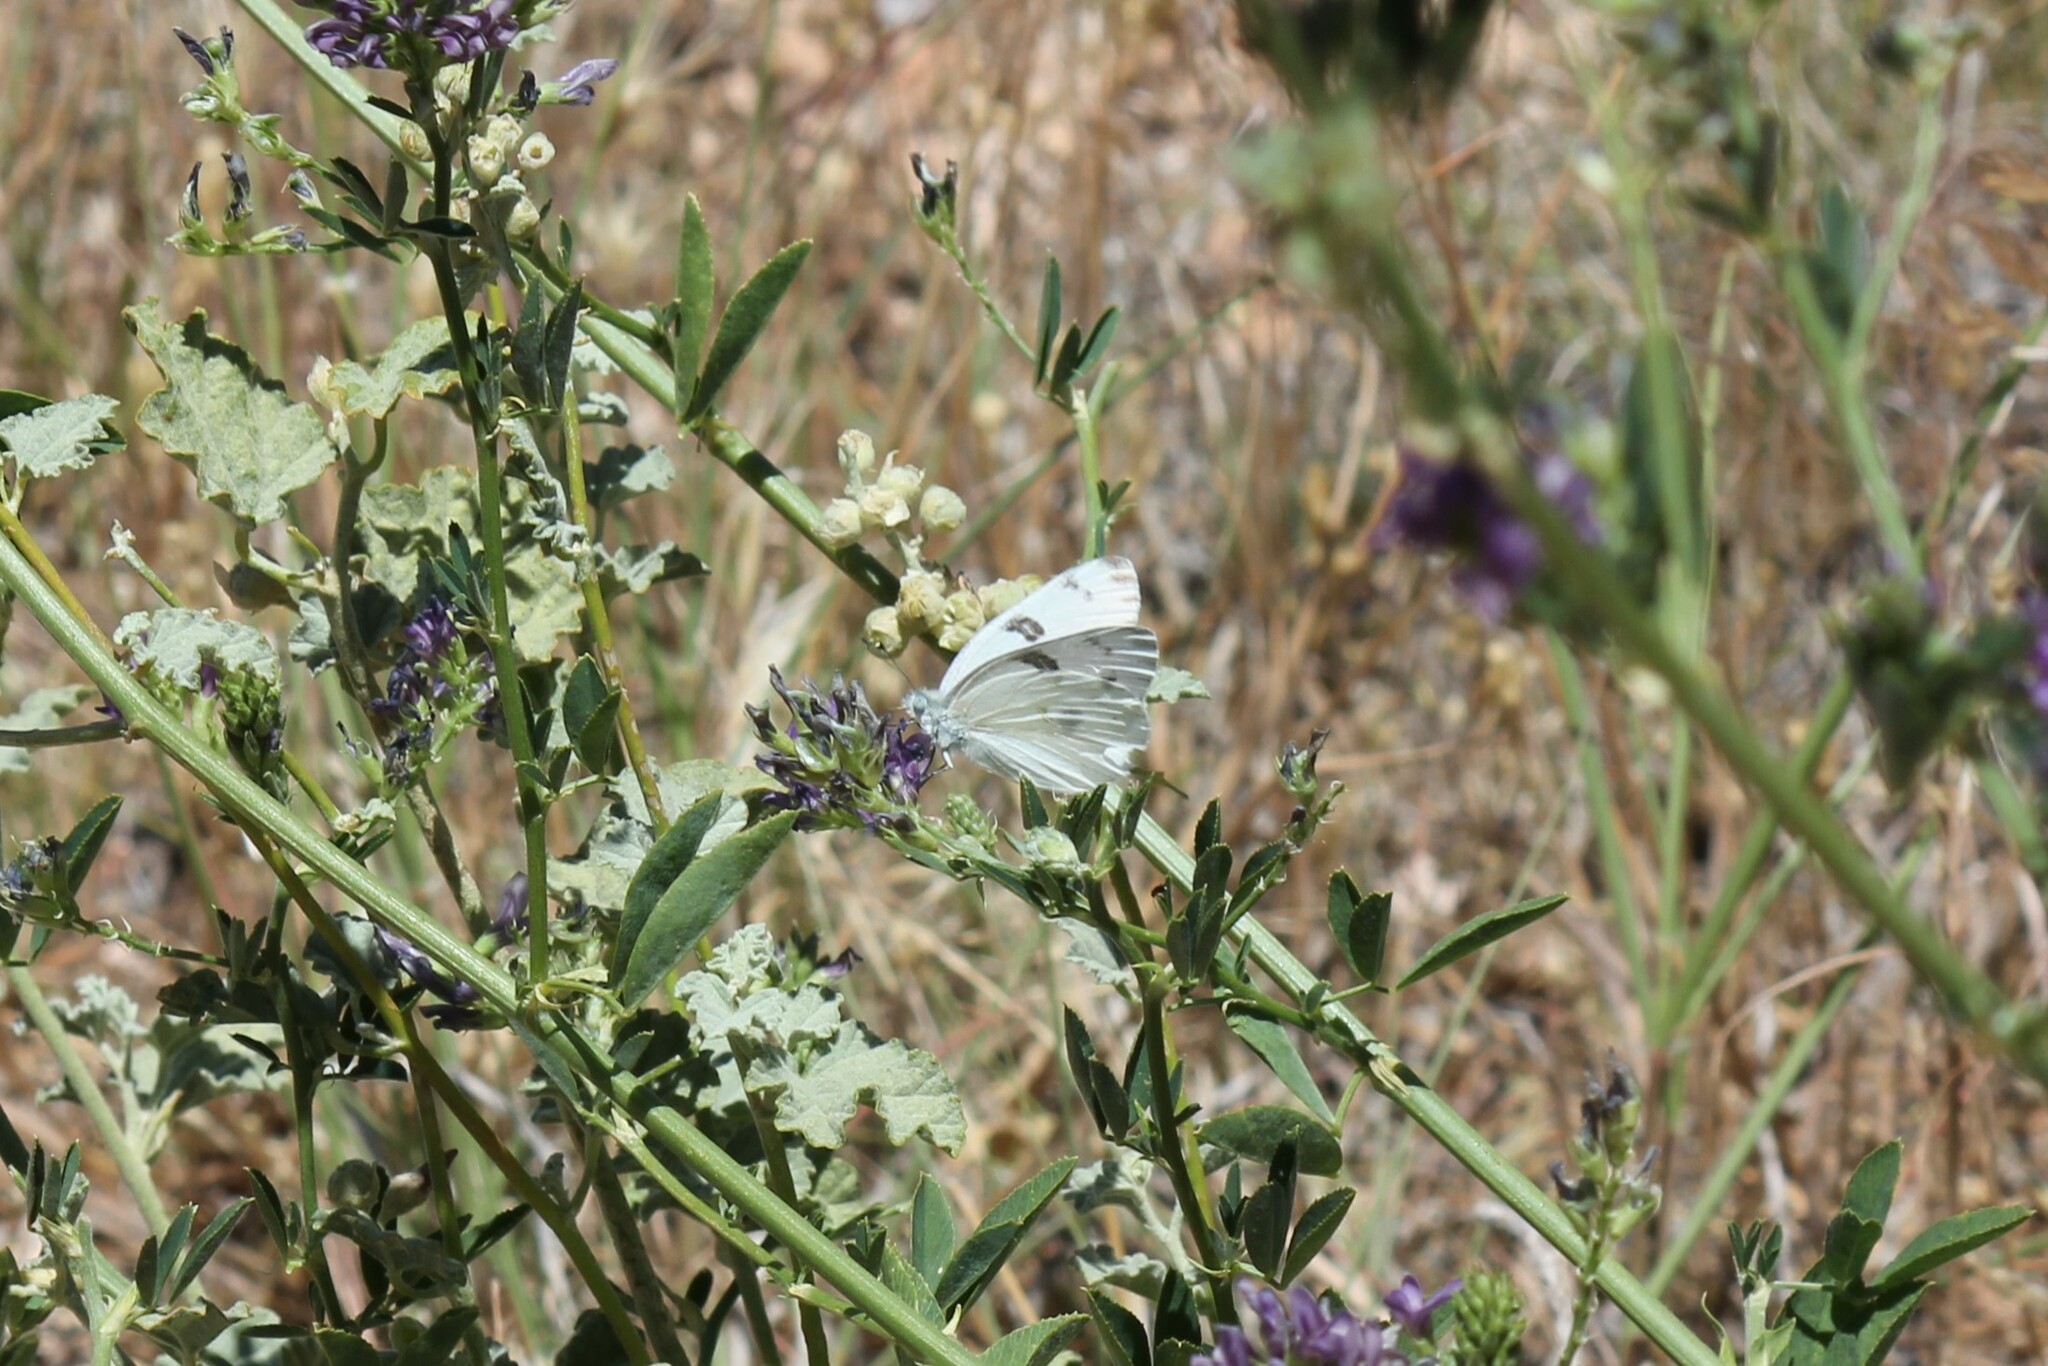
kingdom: Animalia
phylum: Arthropoda
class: Insecta
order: Lepidoptera
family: Pieridae
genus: Pontia
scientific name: Pontia protodice
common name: Checkered white
